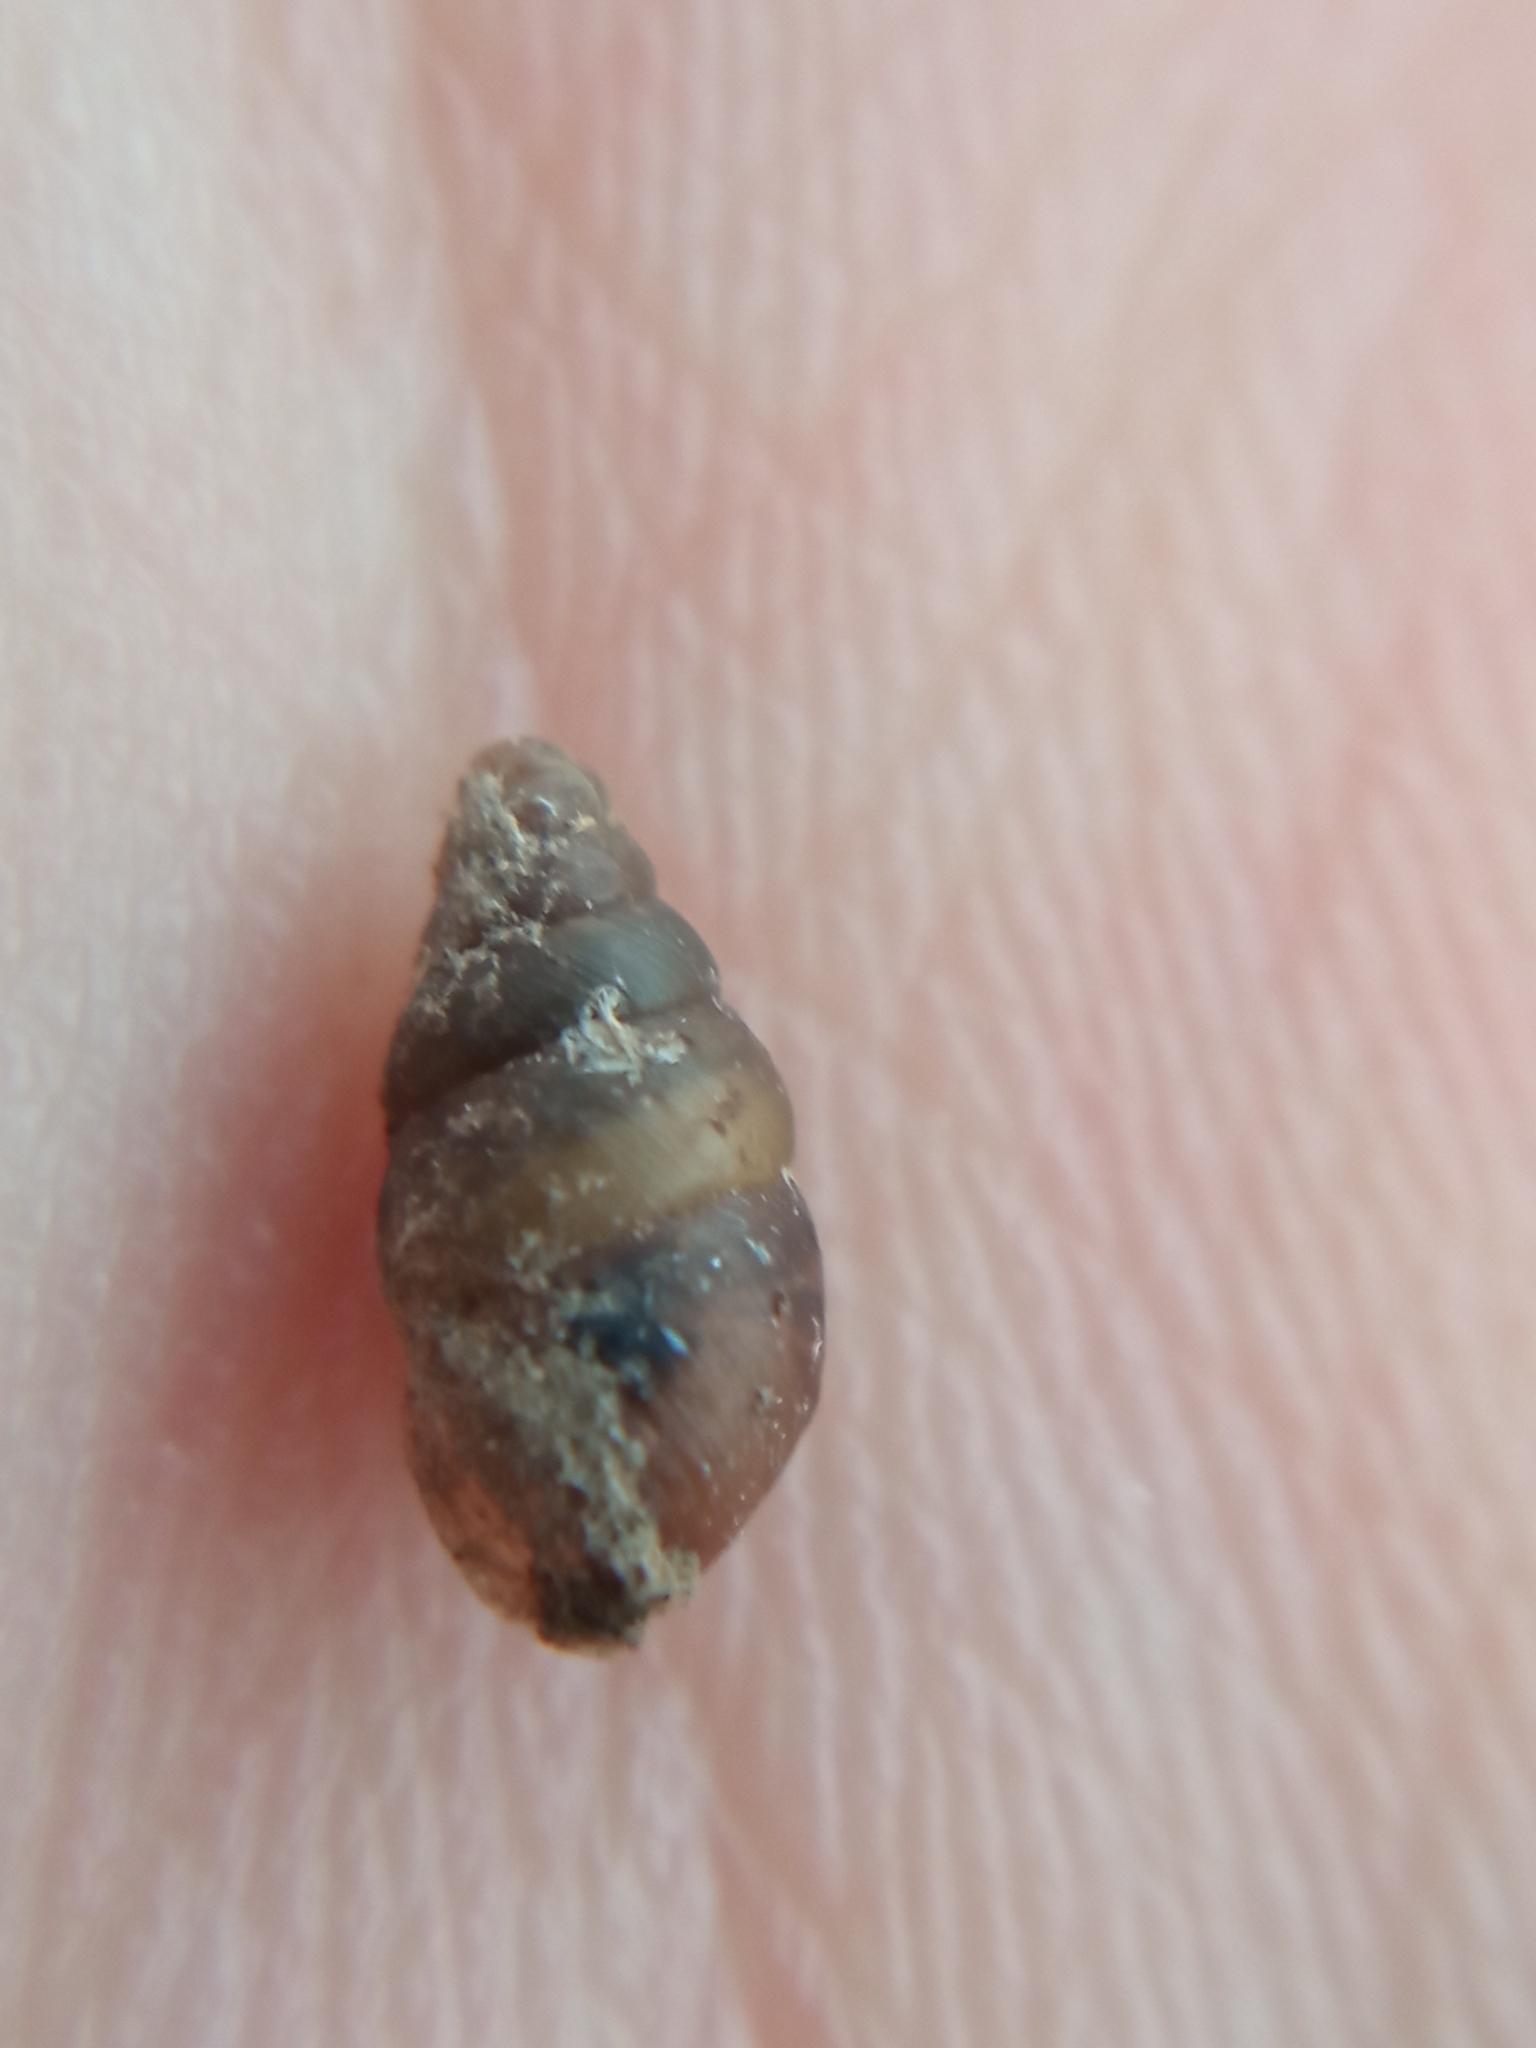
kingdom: Animalia
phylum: Mollusca
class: Gastropoda
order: Stylommatophora
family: Enidae
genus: Merdigera
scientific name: Merdigera obscura
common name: Lesser bulin
